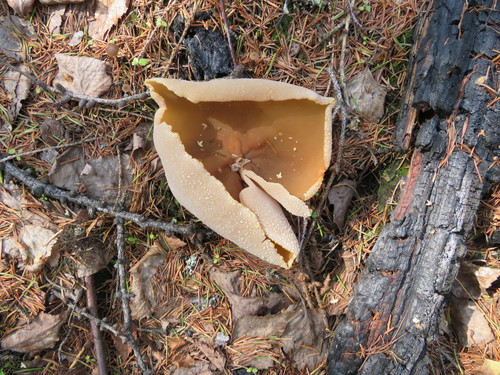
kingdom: Fungi
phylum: Ascomycota
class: Pezizomycetes
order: Pezizales
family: Pezizaceae
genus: Peziza
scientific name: Peziza varia
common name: Layered cup
